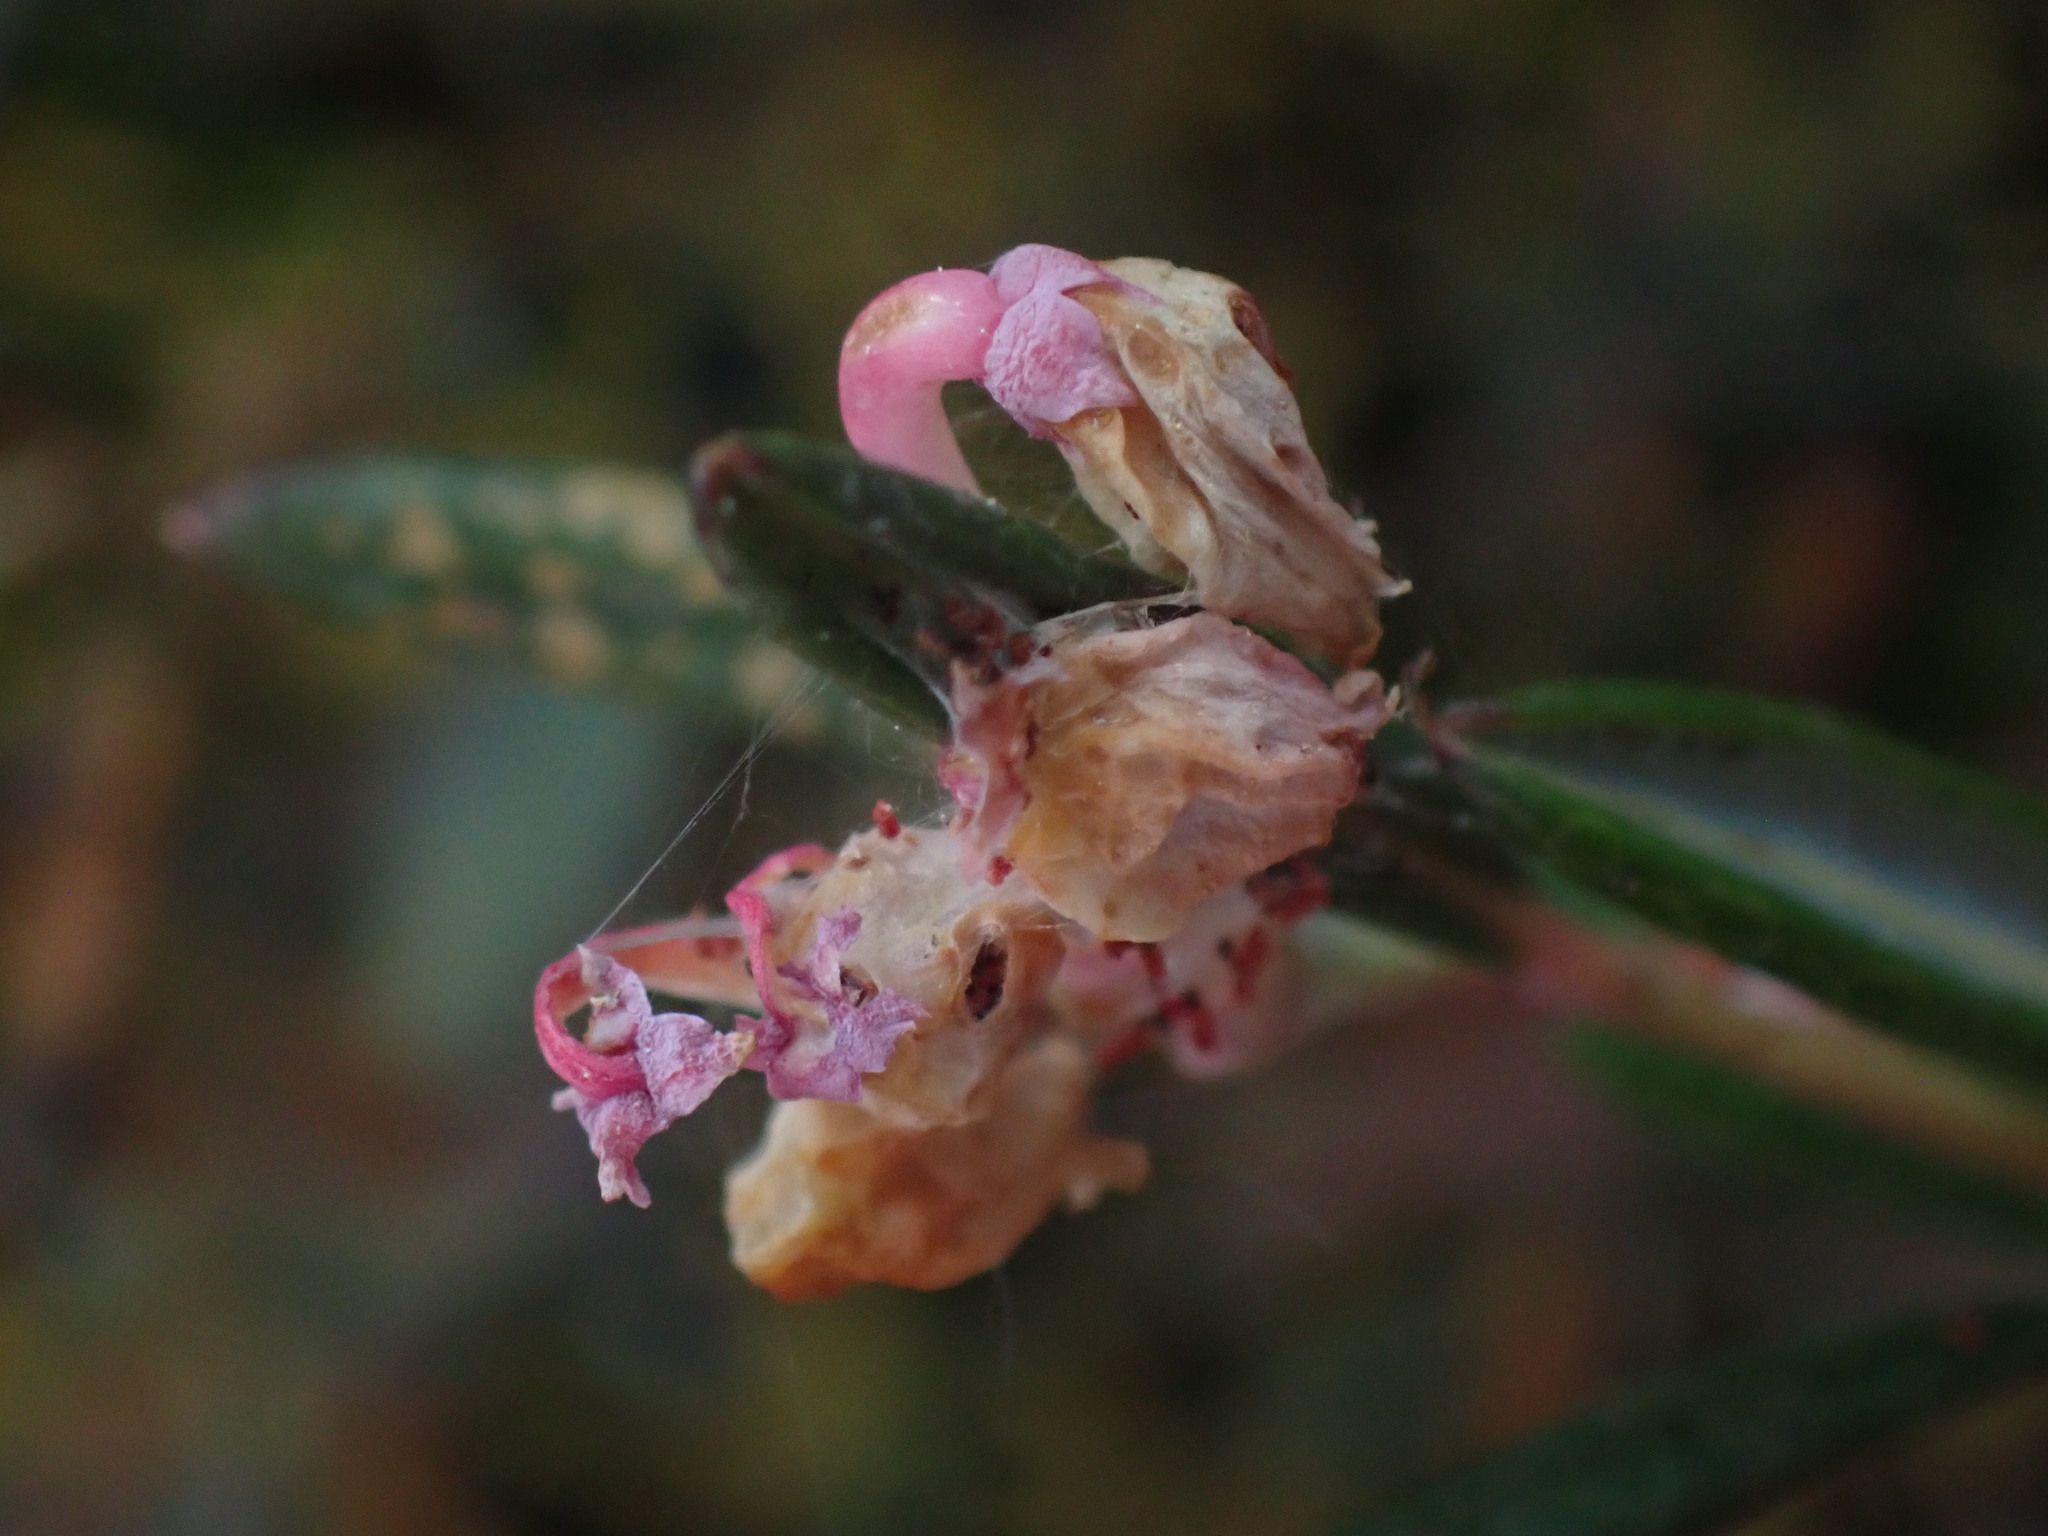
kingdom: Plantae
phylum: Tracheophyta
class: Magnoliopsida
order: Ericales
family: Ericaceae
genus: Andromeda
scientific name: Andromeda polifolia
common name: Bog-rosemary
